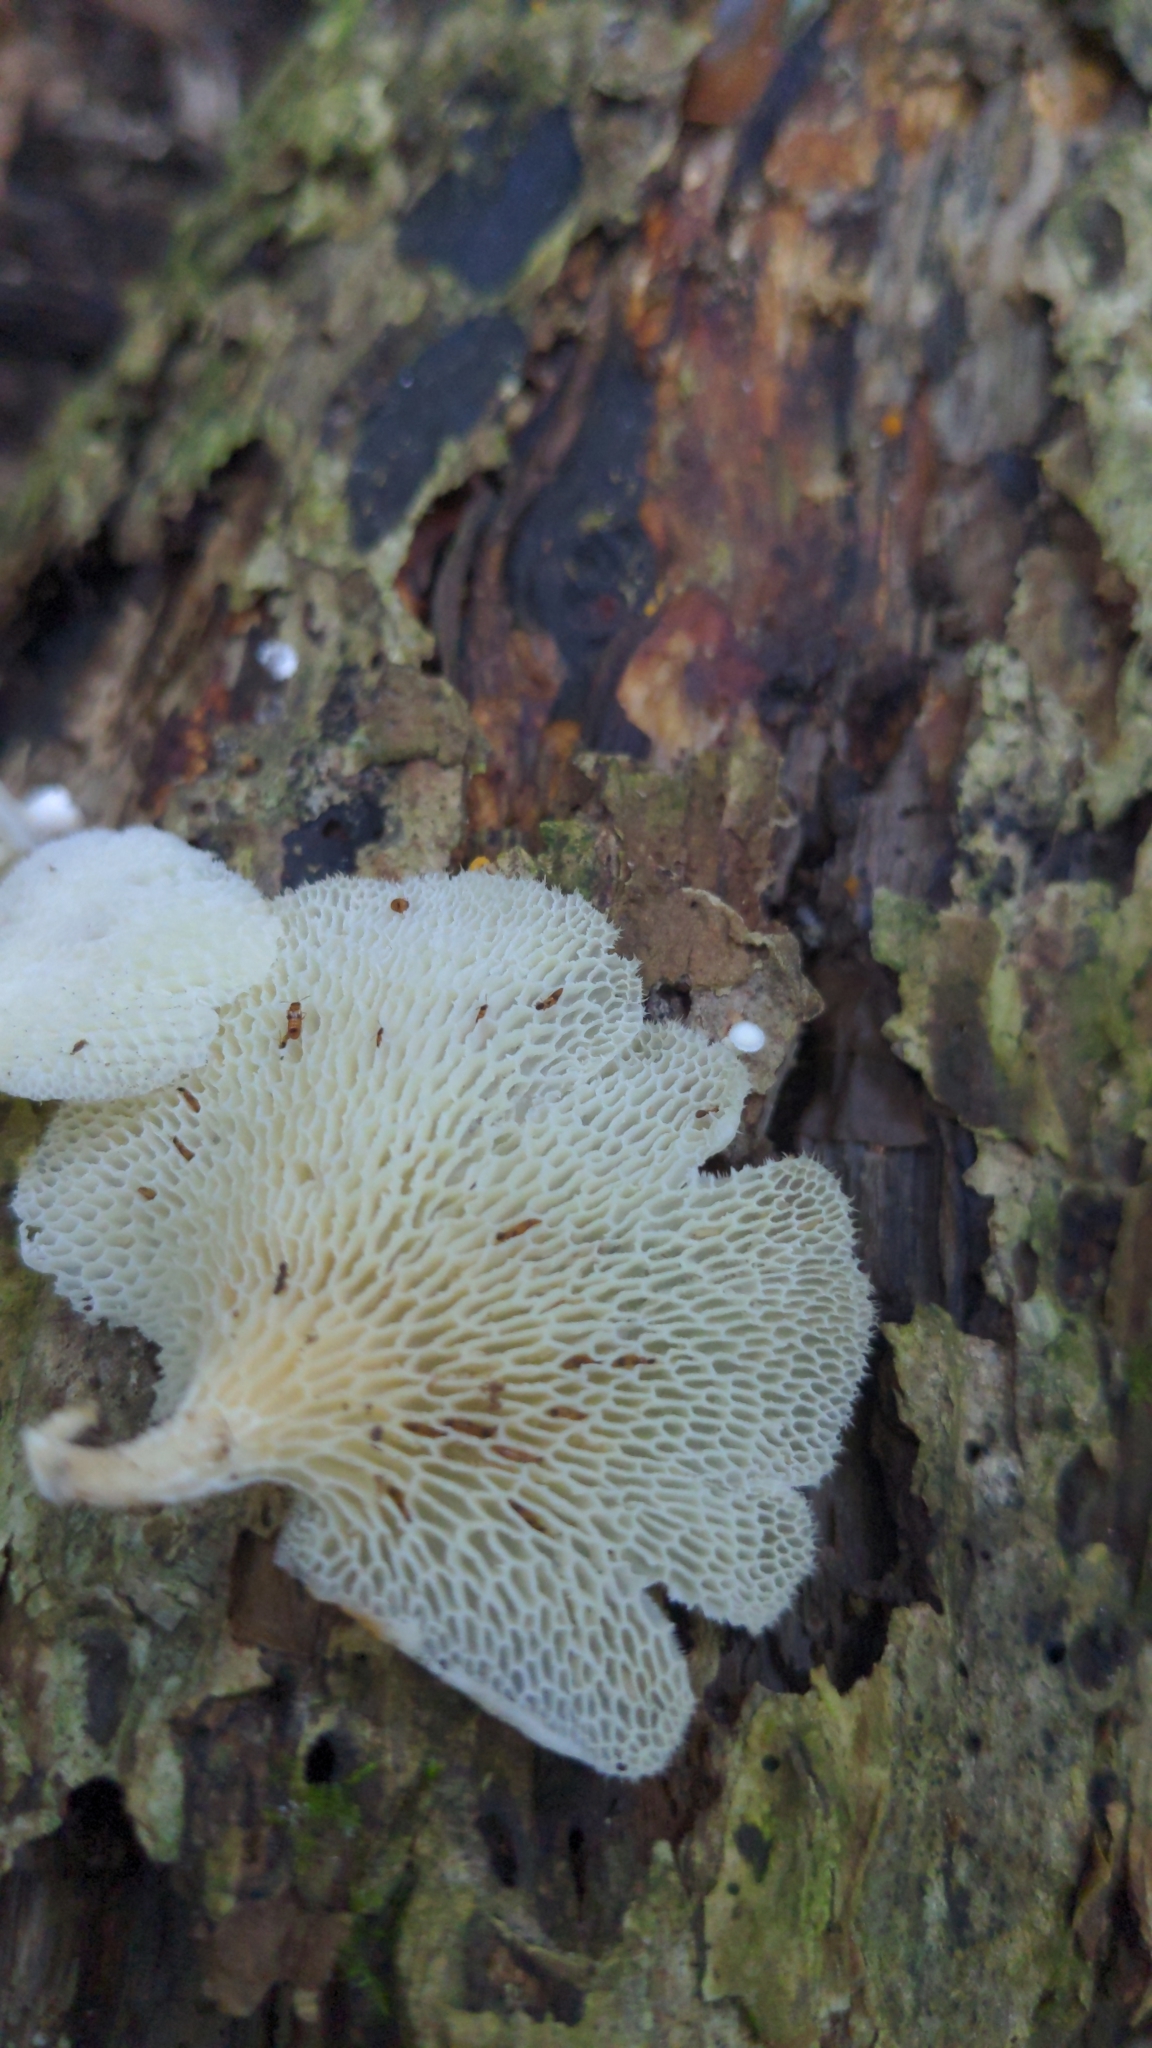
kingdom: Fungi
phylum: Basidiomycota
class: Agaricomycetes
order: Polyporales
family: Polyporaceae
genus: Favolus
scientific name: Favolus tenuiculus
